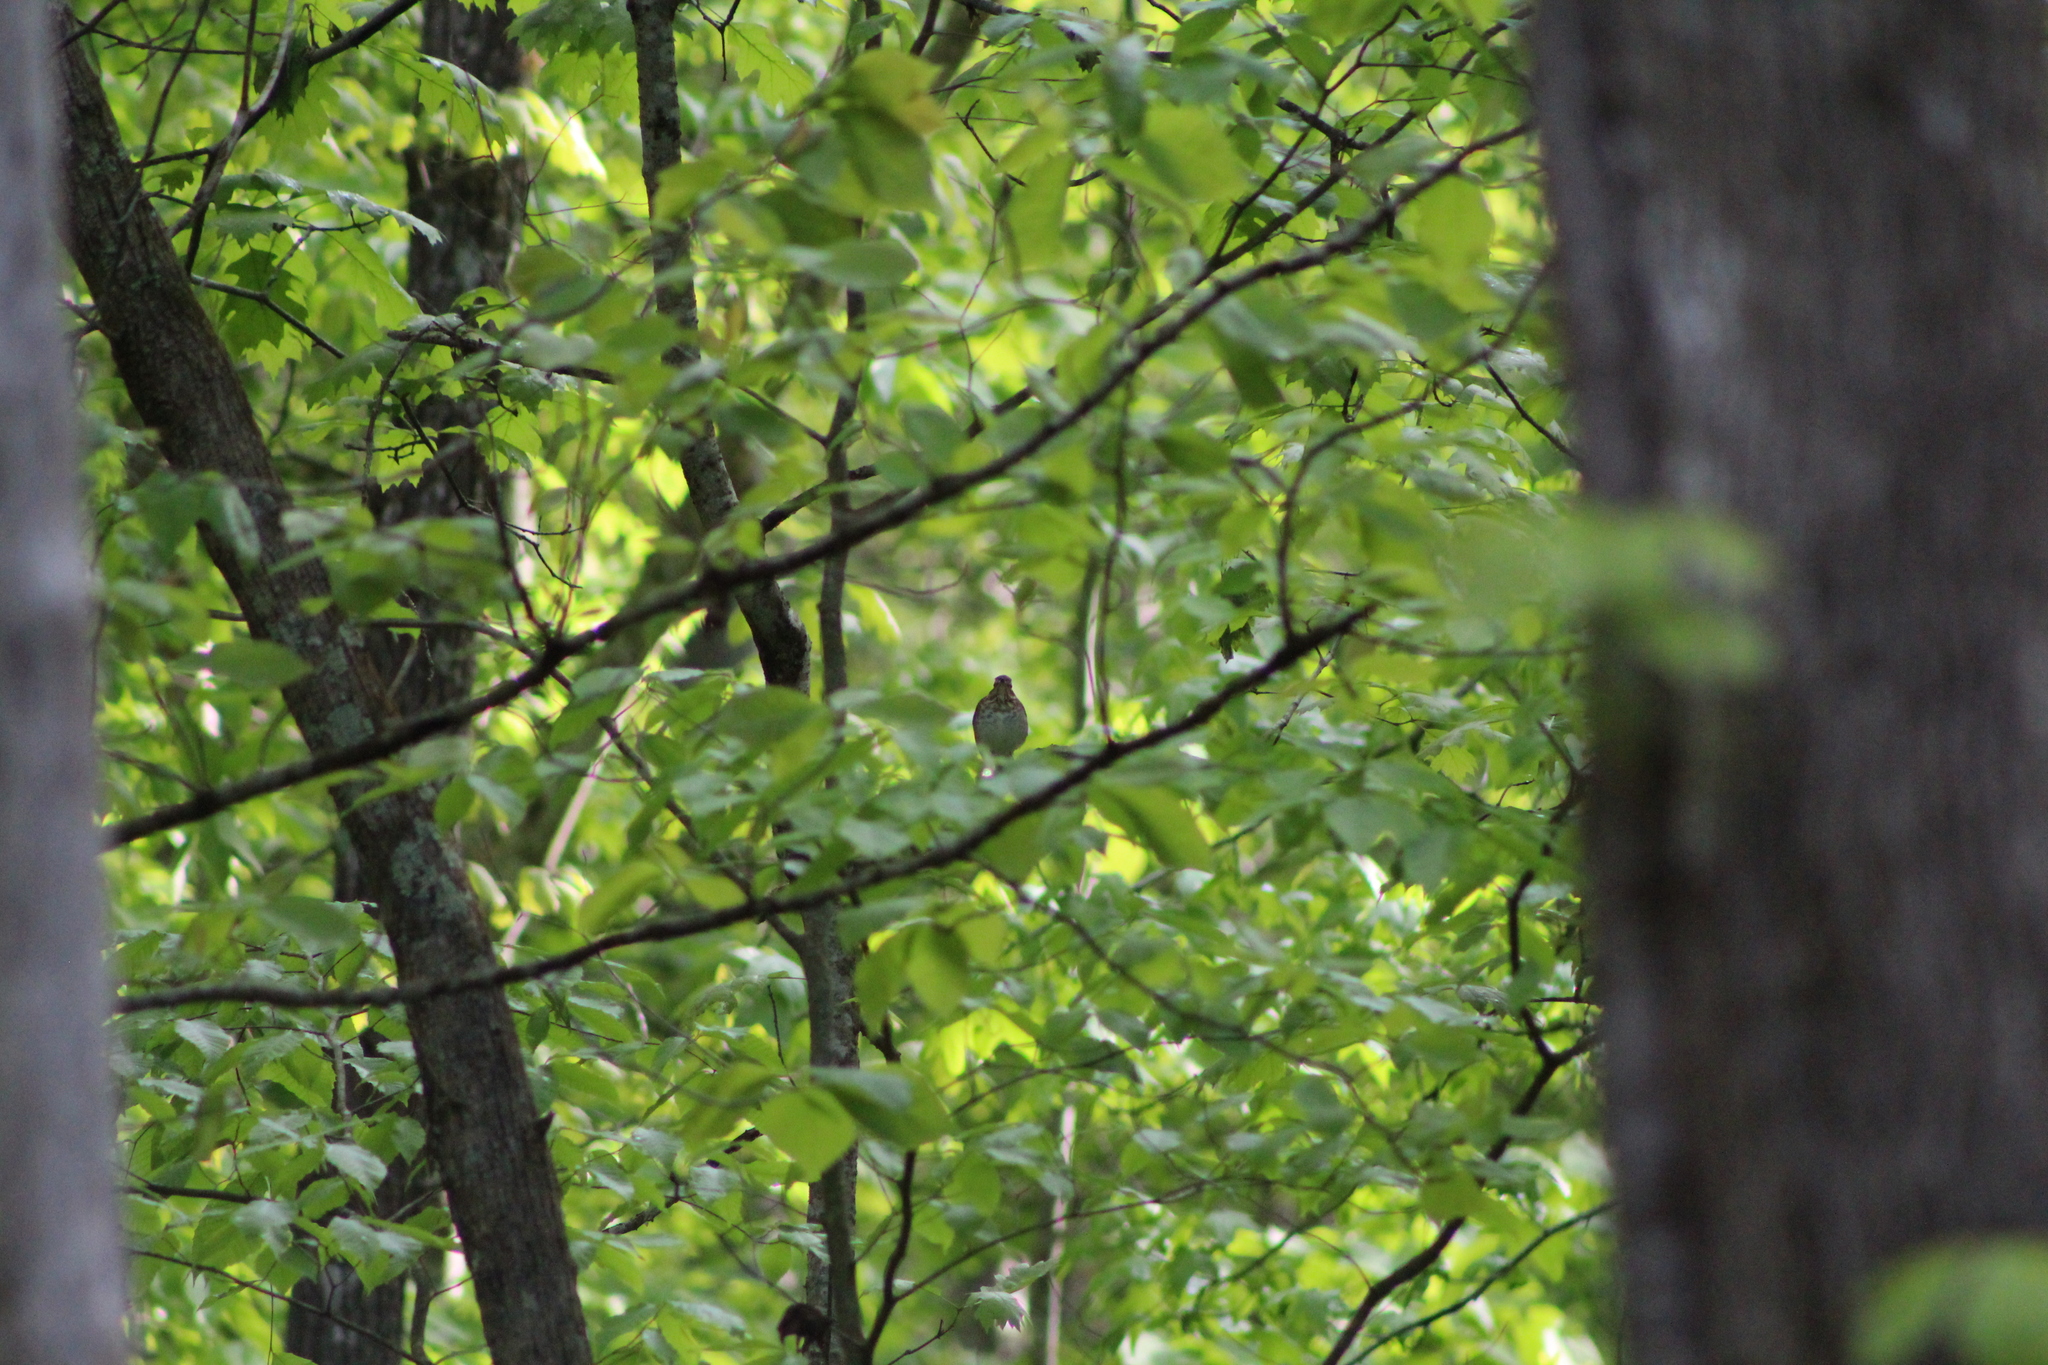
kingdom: Animalia
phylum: Chordata
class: Aves
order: Passeriformes
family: Turdidae
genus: Catharus
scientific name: Catharus ustulatus
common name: Swainson's thrush
